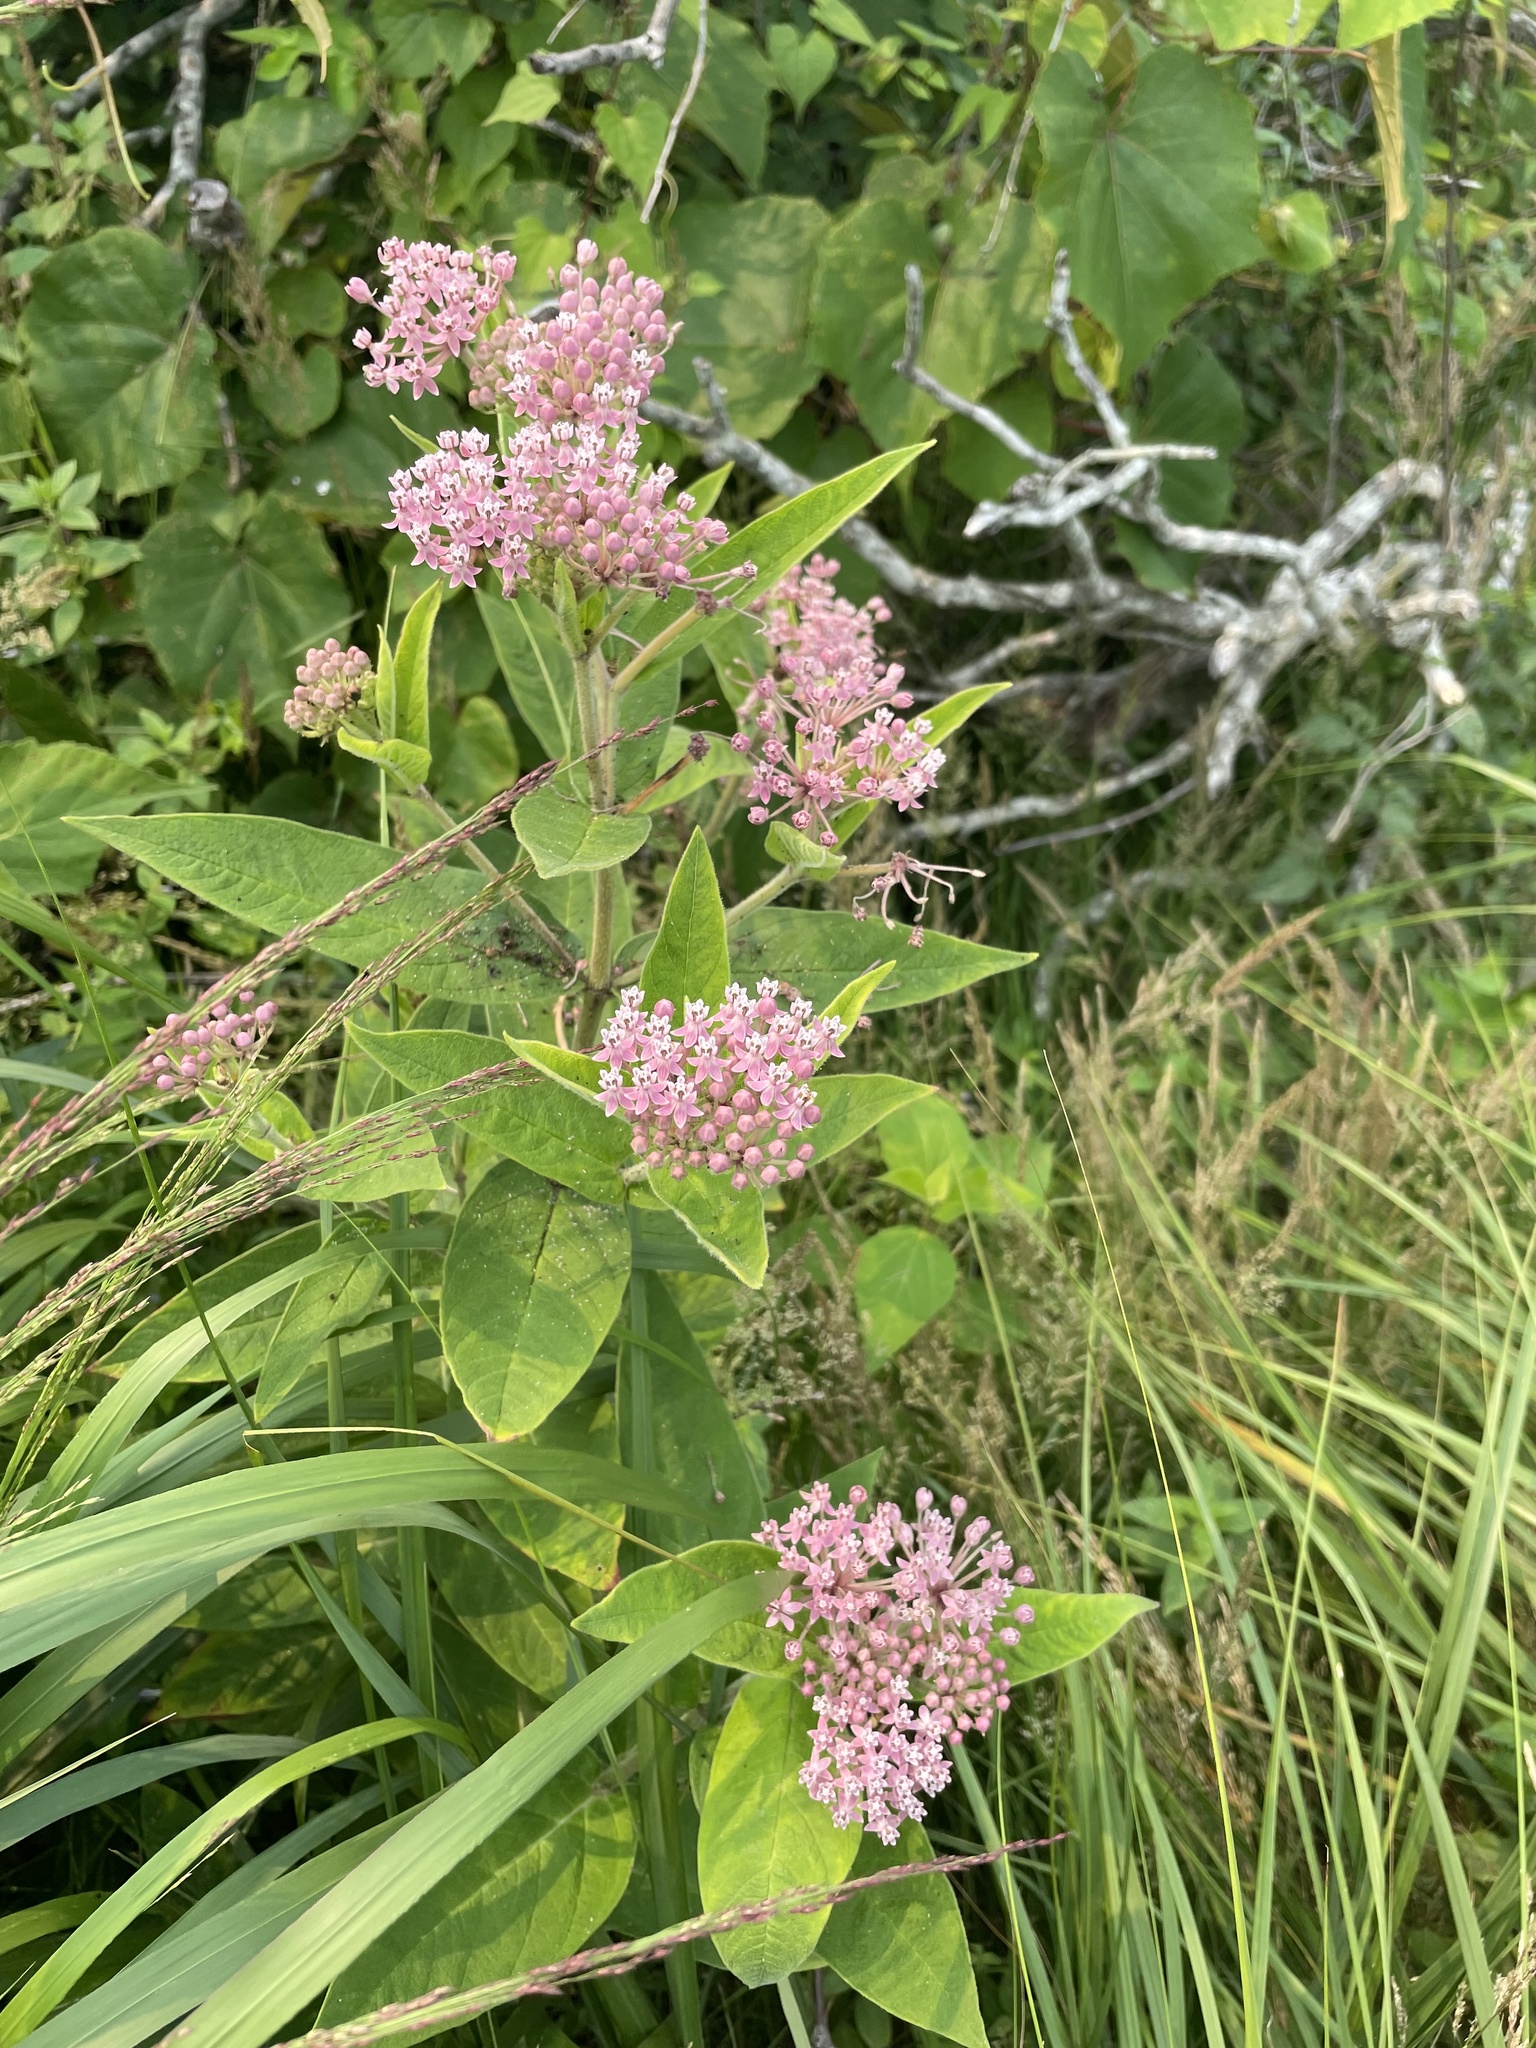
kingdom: Plantae
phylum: Tracheophyta
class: Magnoliopsida
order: Gentianales
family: Apocynaceae
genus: Asclepias
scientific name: Asclepias incarnata
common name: Swamp milkweed
